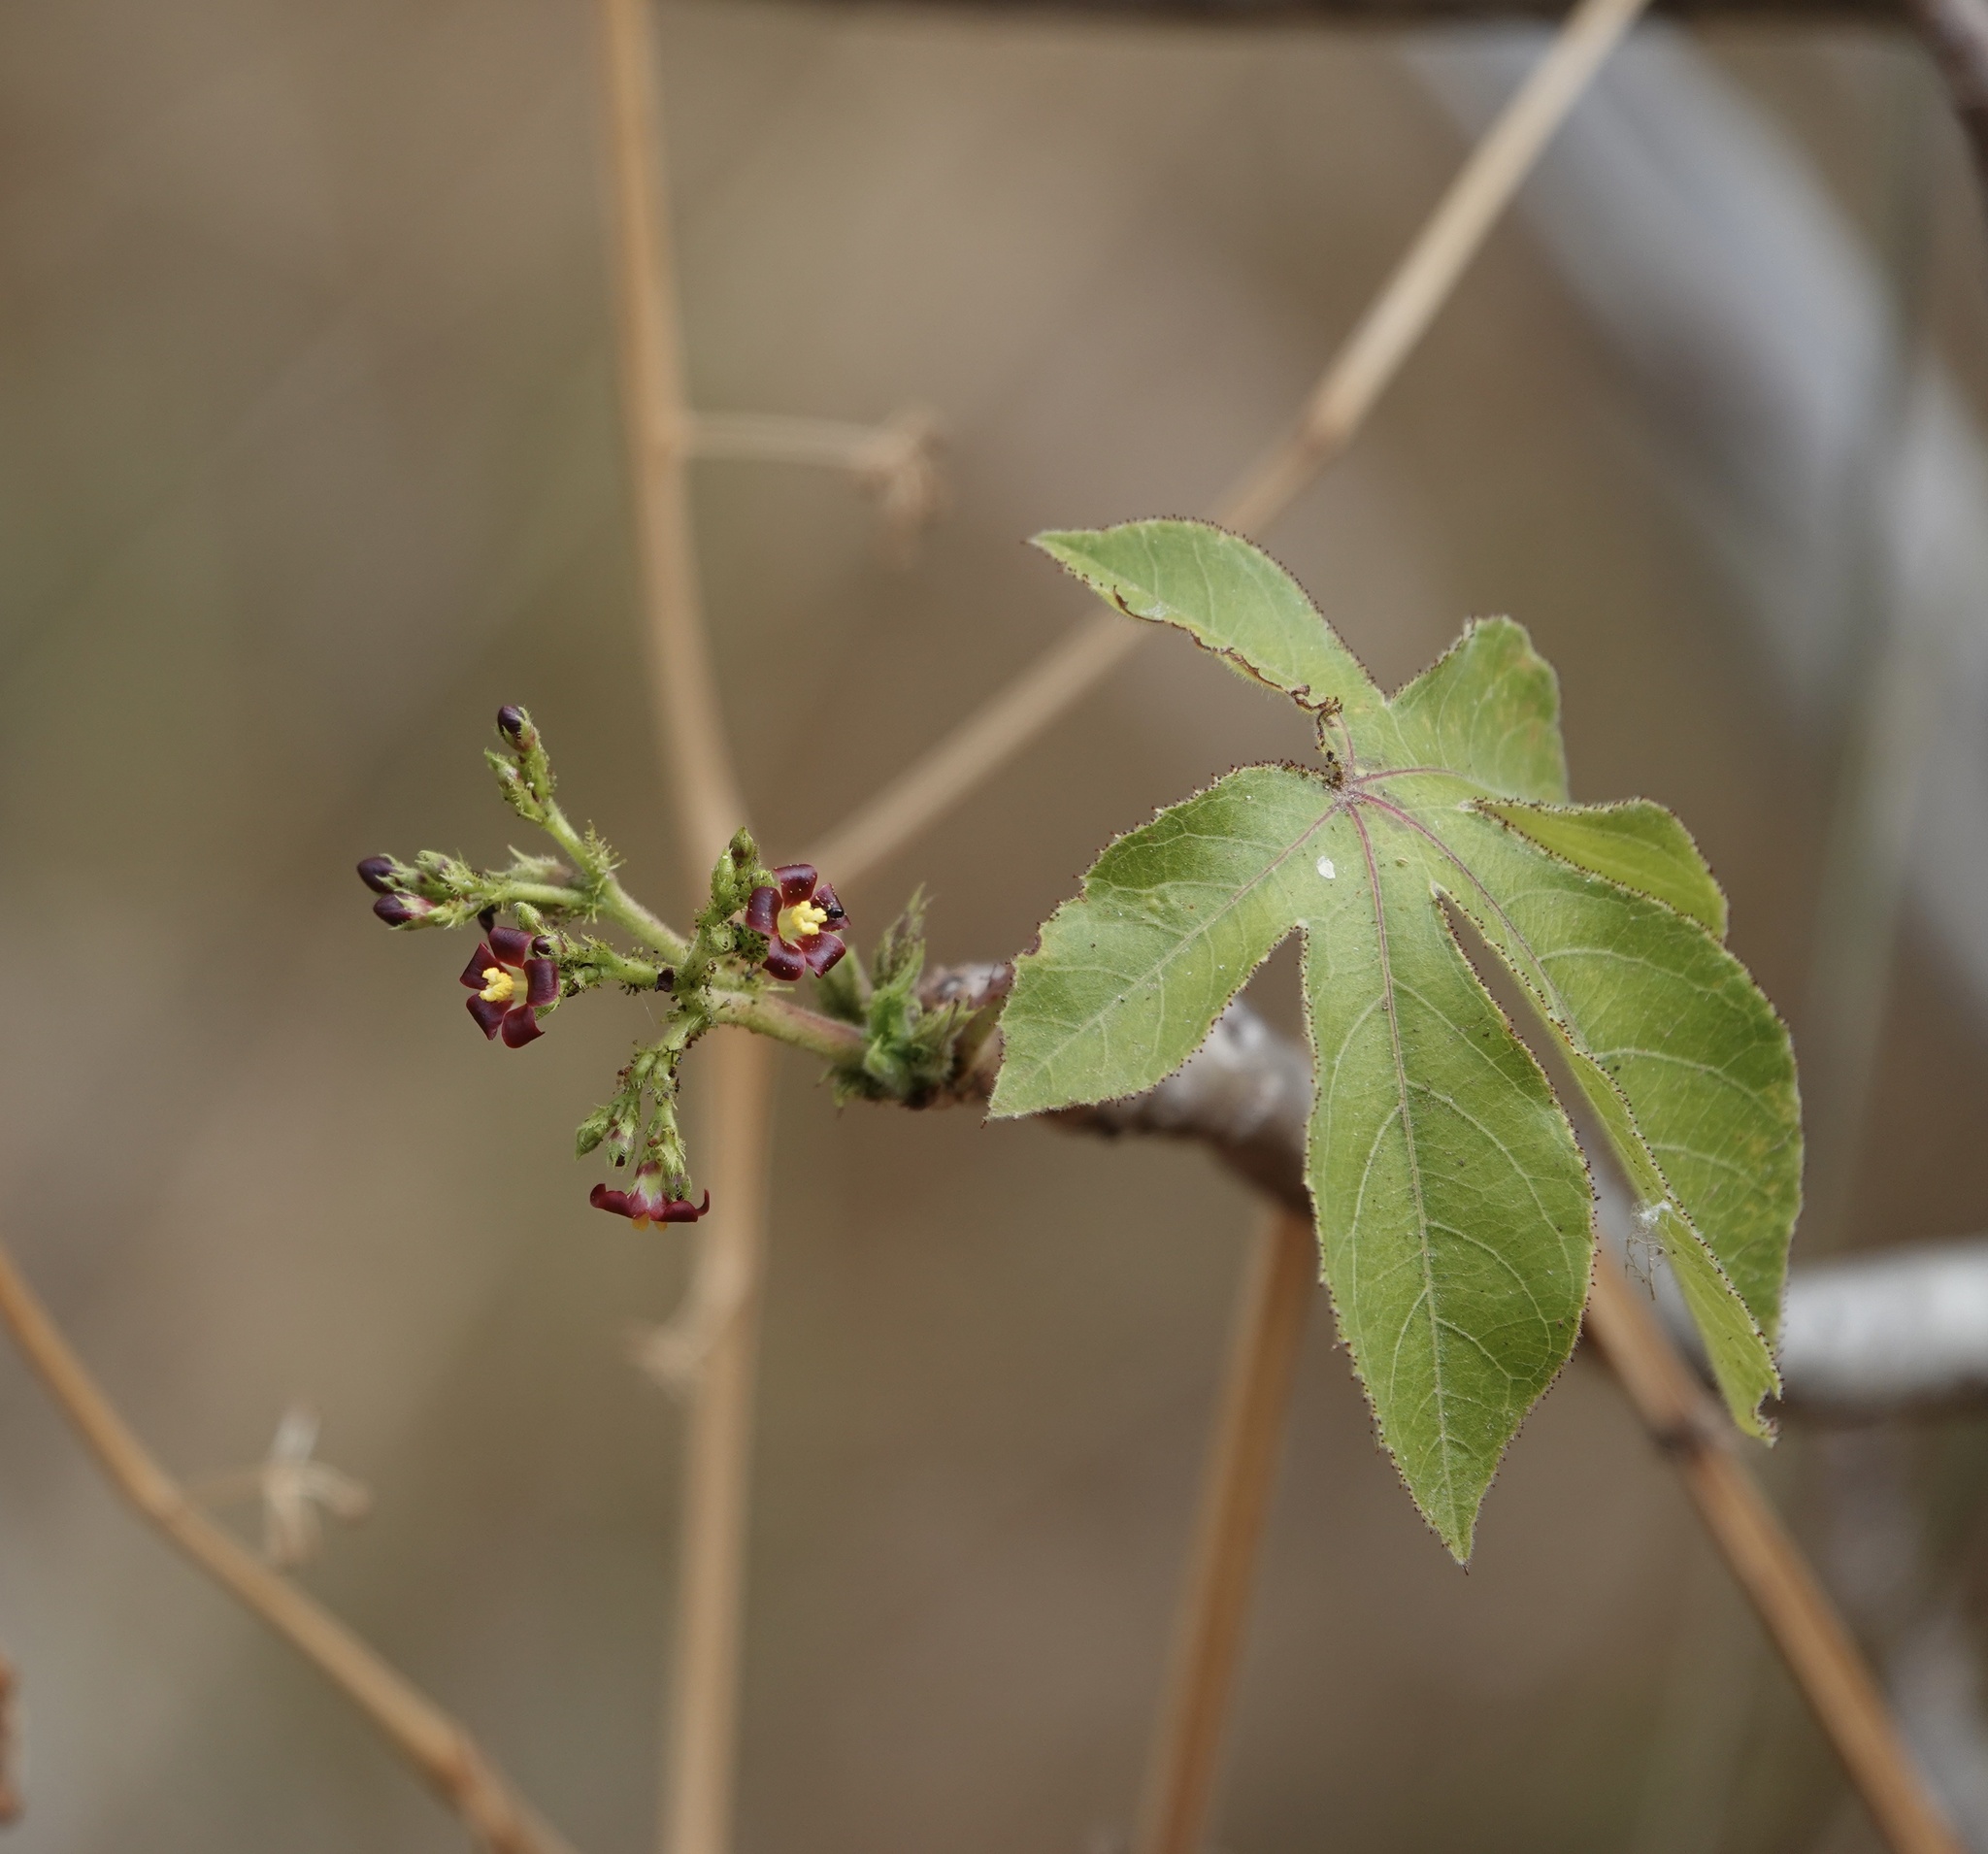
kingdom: Plantae
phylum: Tracheophyta
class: Magnoliopsida
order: Malpighiales
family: Euphorbiaceae
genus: Jatropha
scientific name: Jatropha gossypiifolia
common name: Bellyache bush
